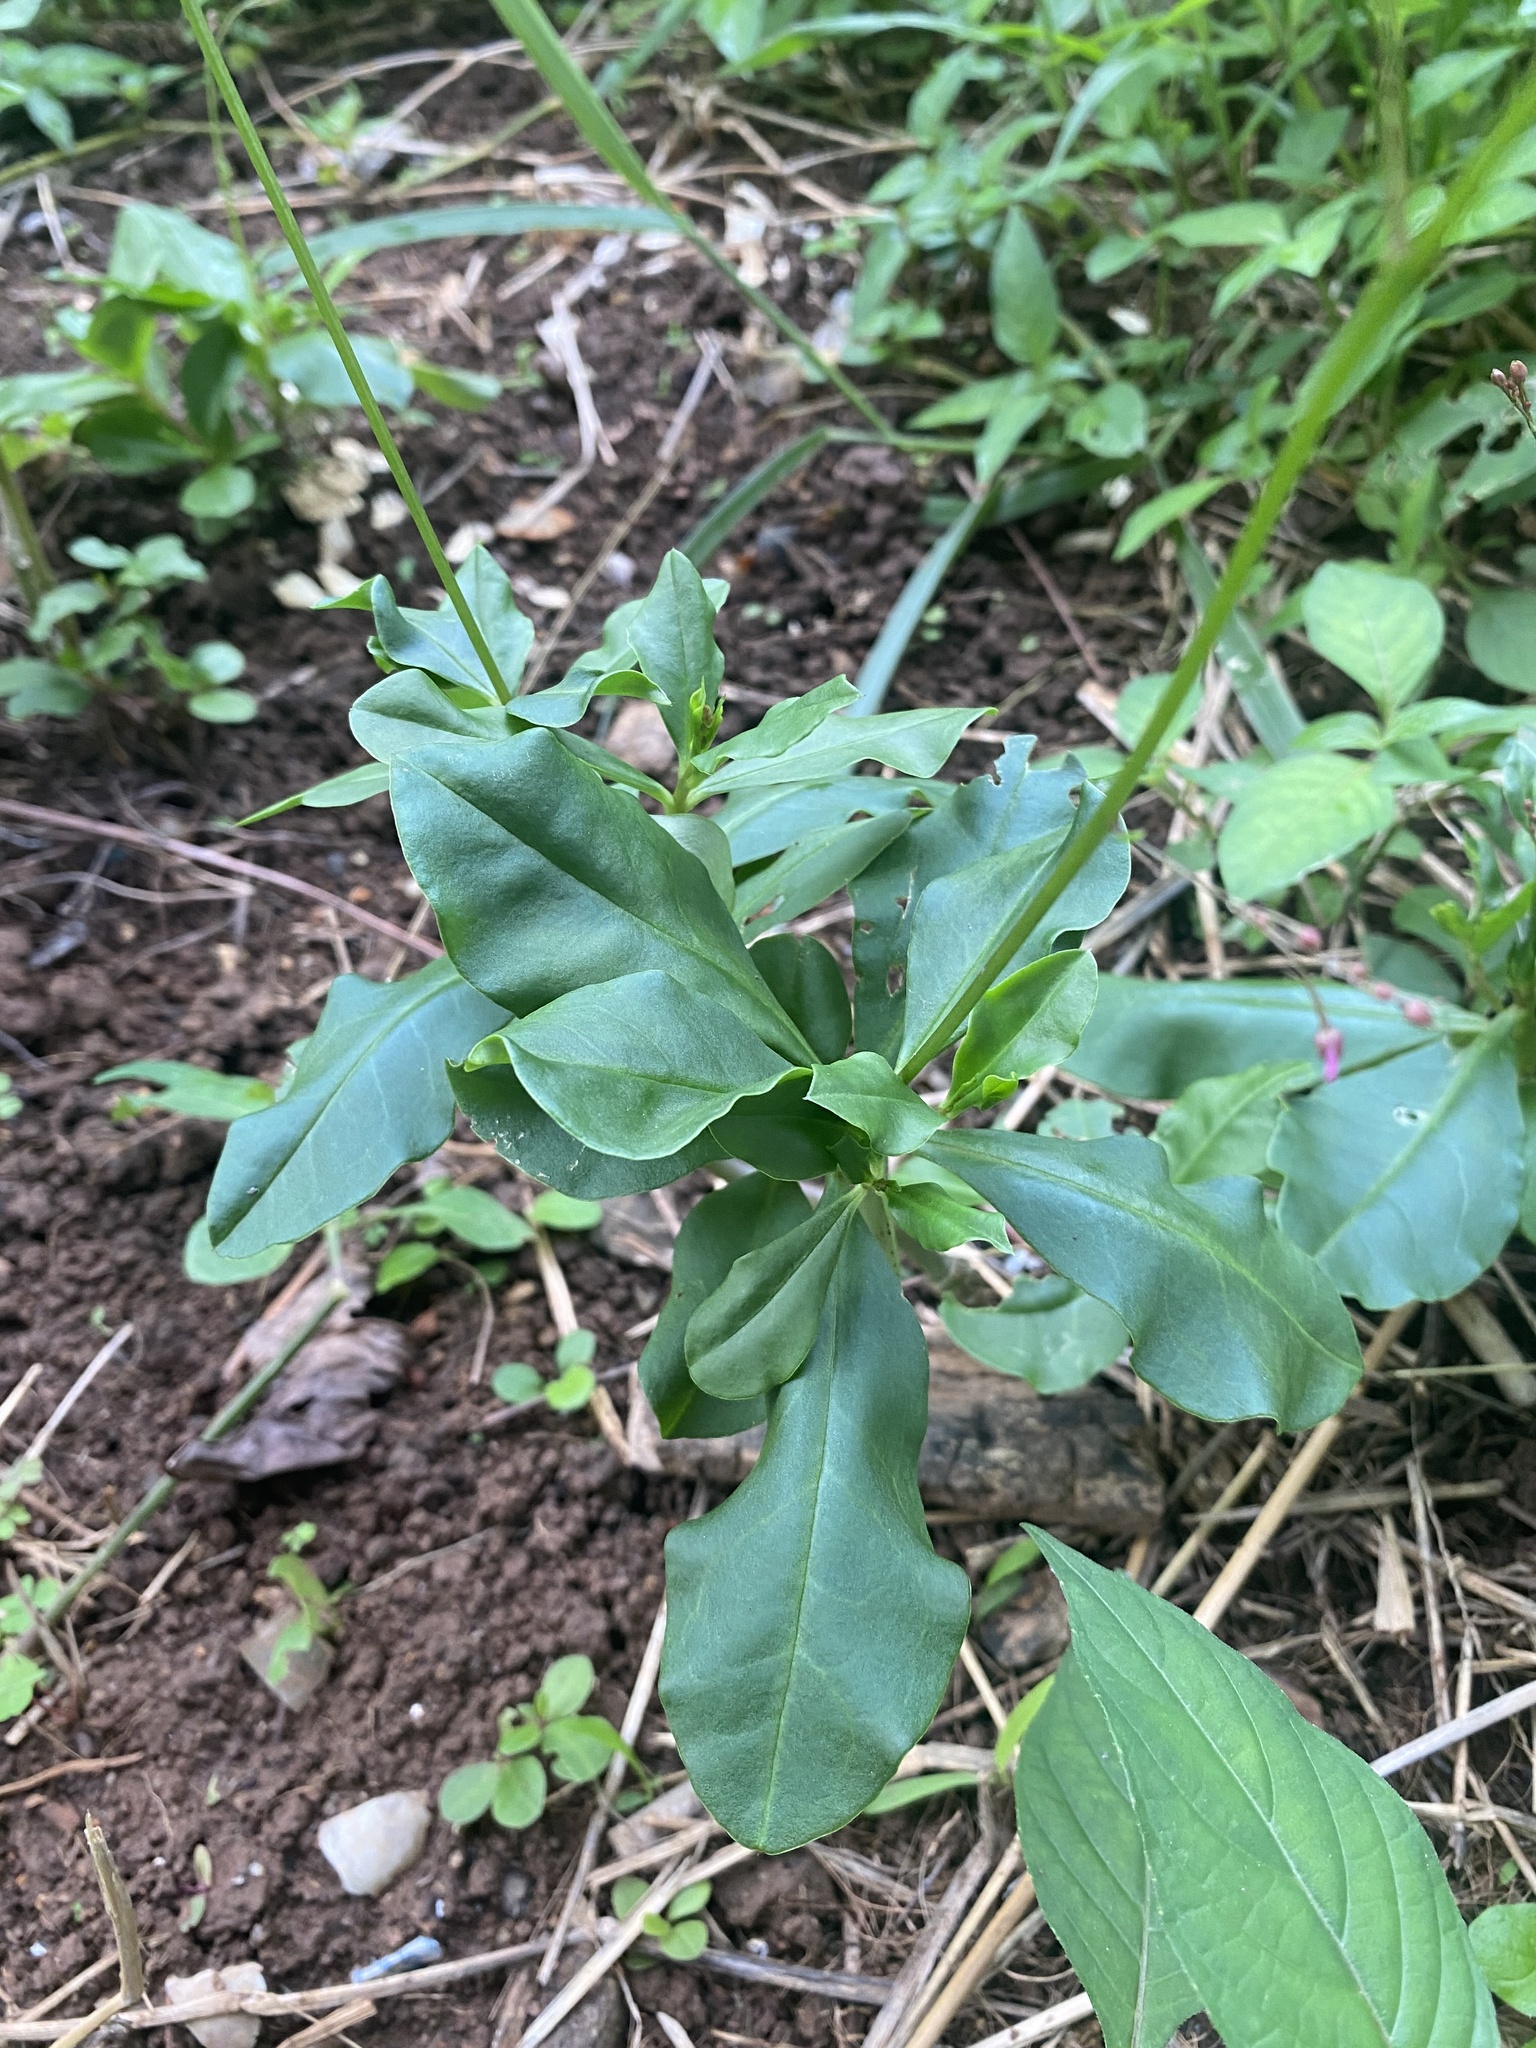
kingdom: Plantae
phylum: Tracheophyta
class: Magnoliopsida
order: Caryophyllales
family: Talinaceae
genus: Talinum
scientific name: Talinum paniculatum
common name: Jewels of opar
